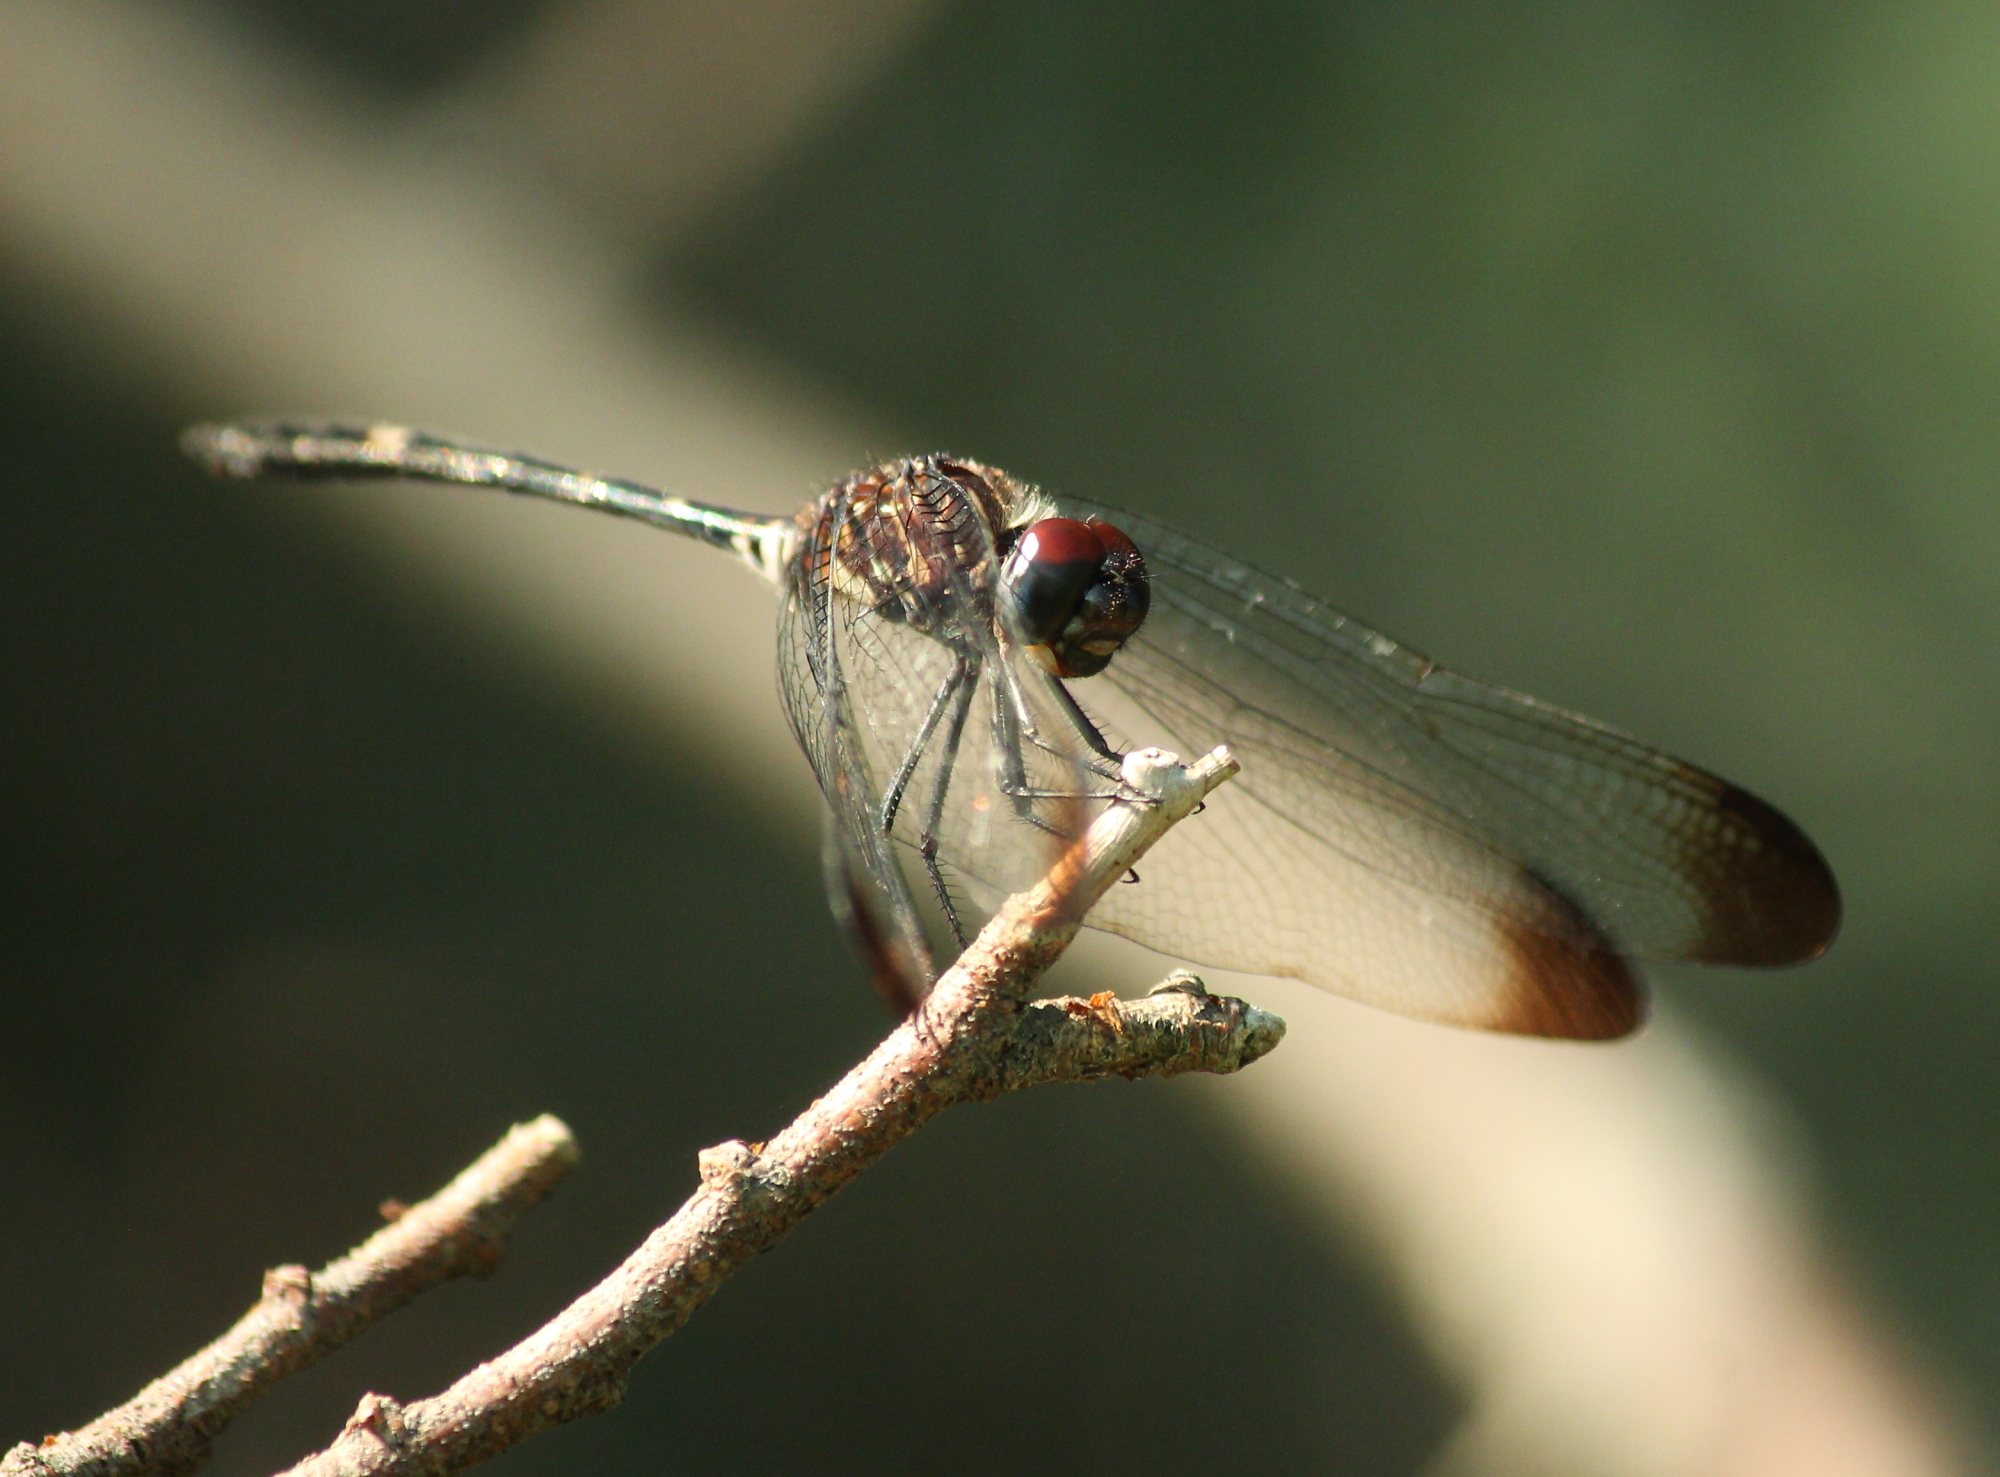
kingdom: Animalia
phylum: Arthropoda
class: Insecta
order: Odonata
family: Libellulidae
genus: Dythemis
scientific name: Dythemis velox
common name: Swift setwing
